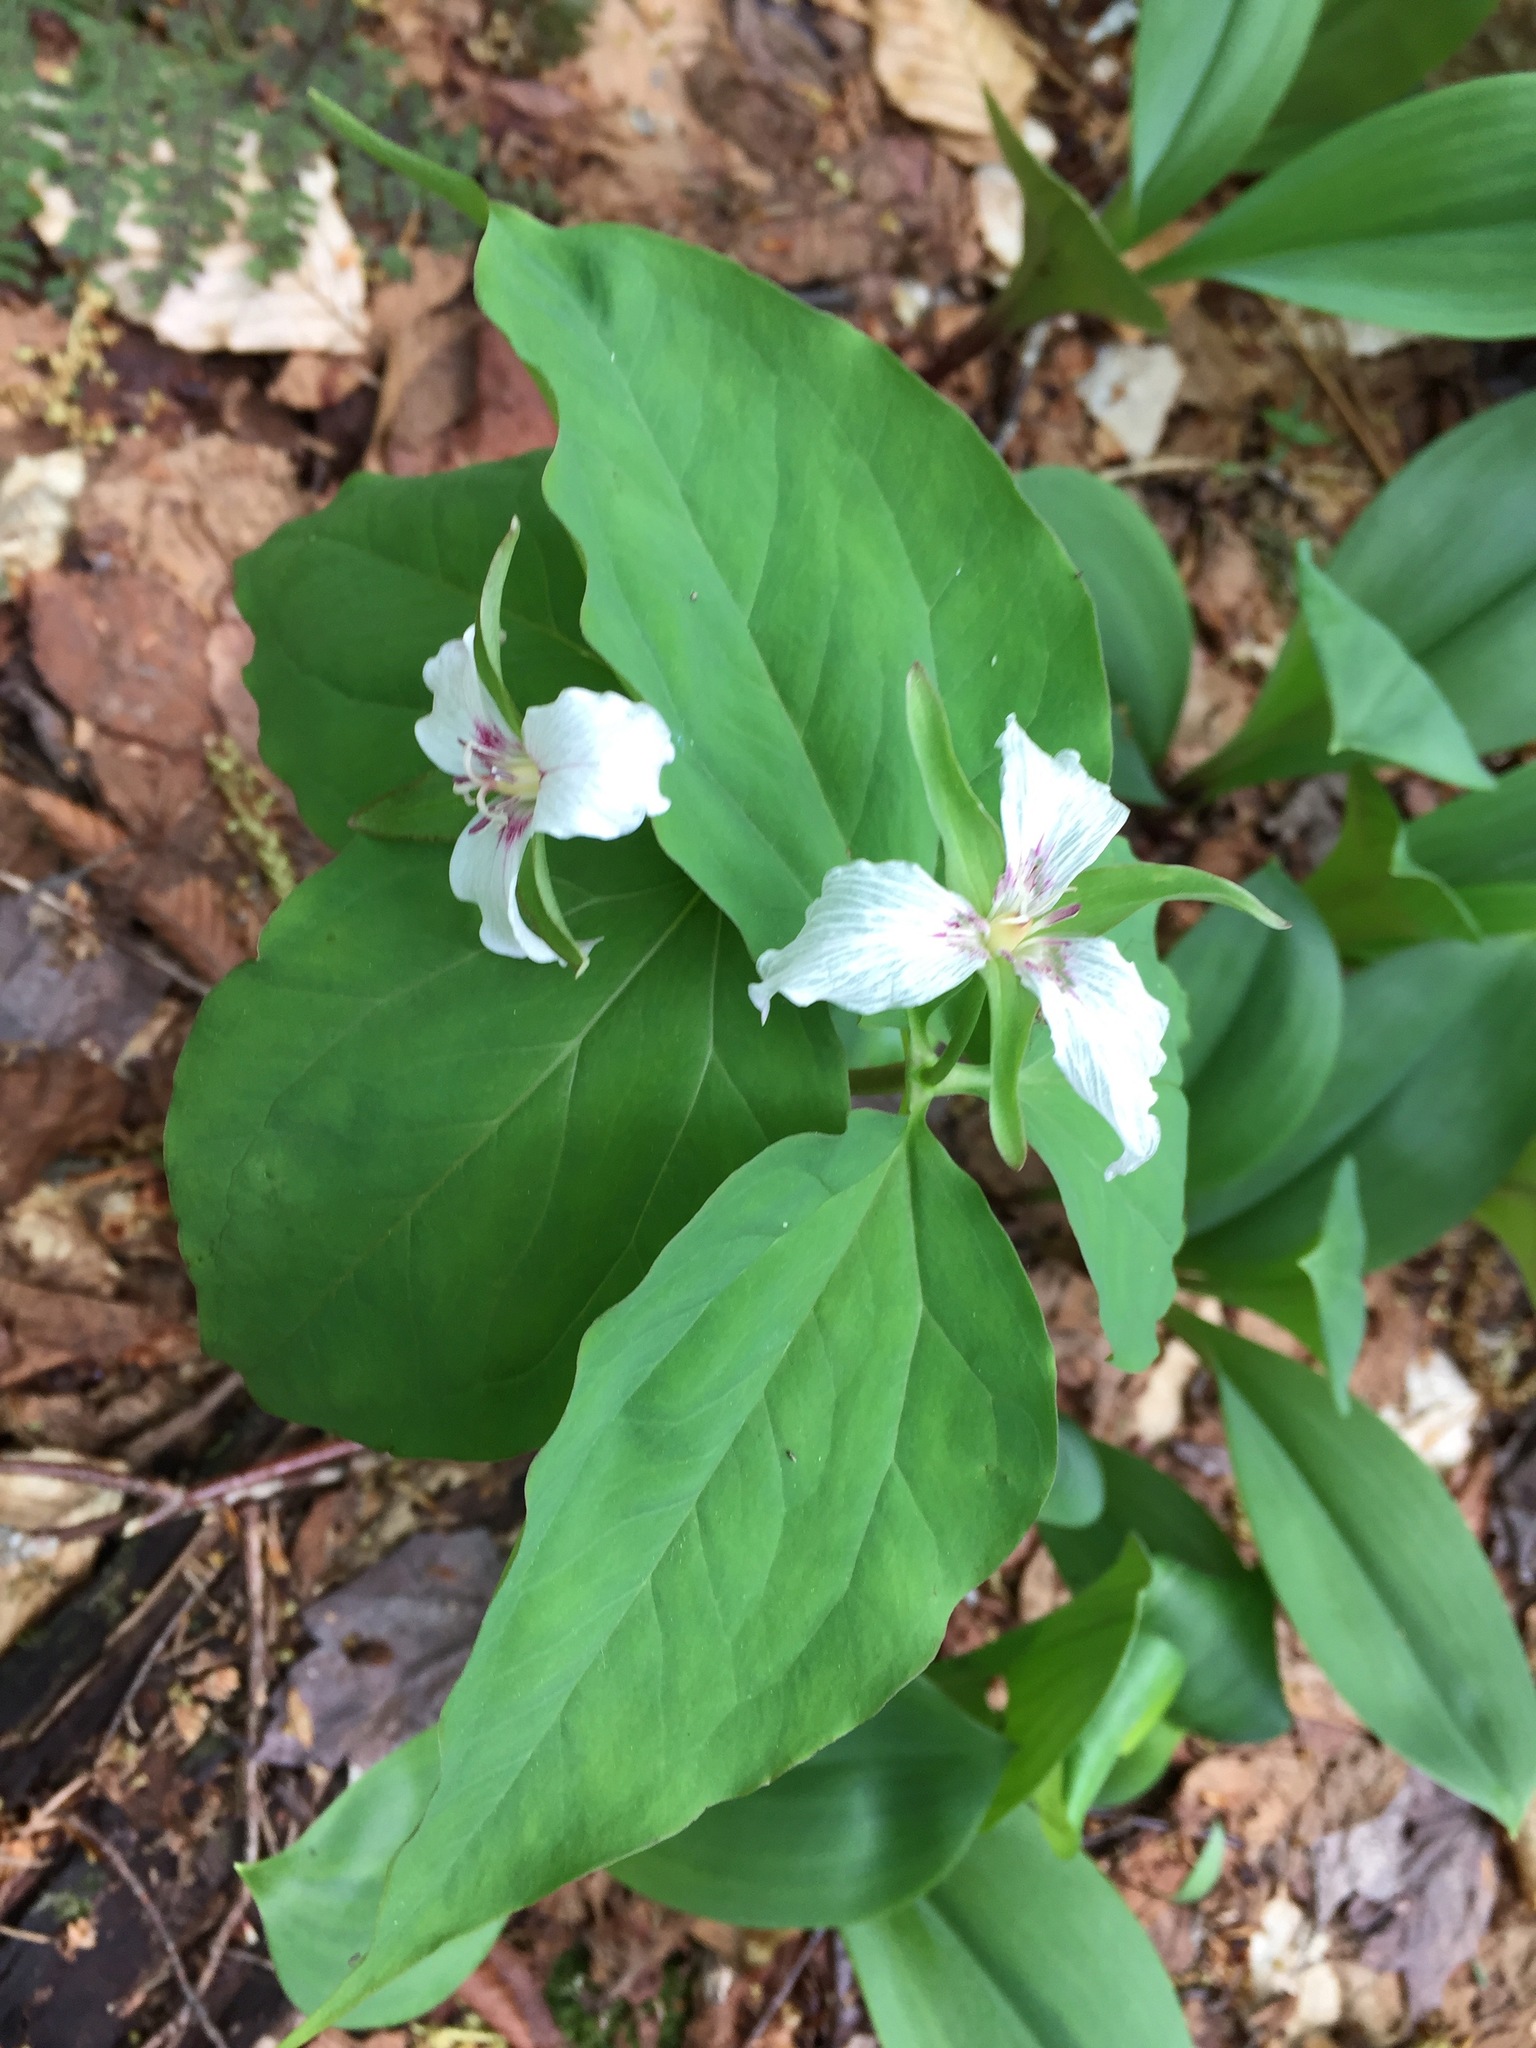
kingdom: Plantae
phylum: Tracheophyta
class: Liliopsida
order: Liliales
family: Melanthiaceae
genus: Trillium
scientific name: Trillium undulatum
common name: Paint trillium
